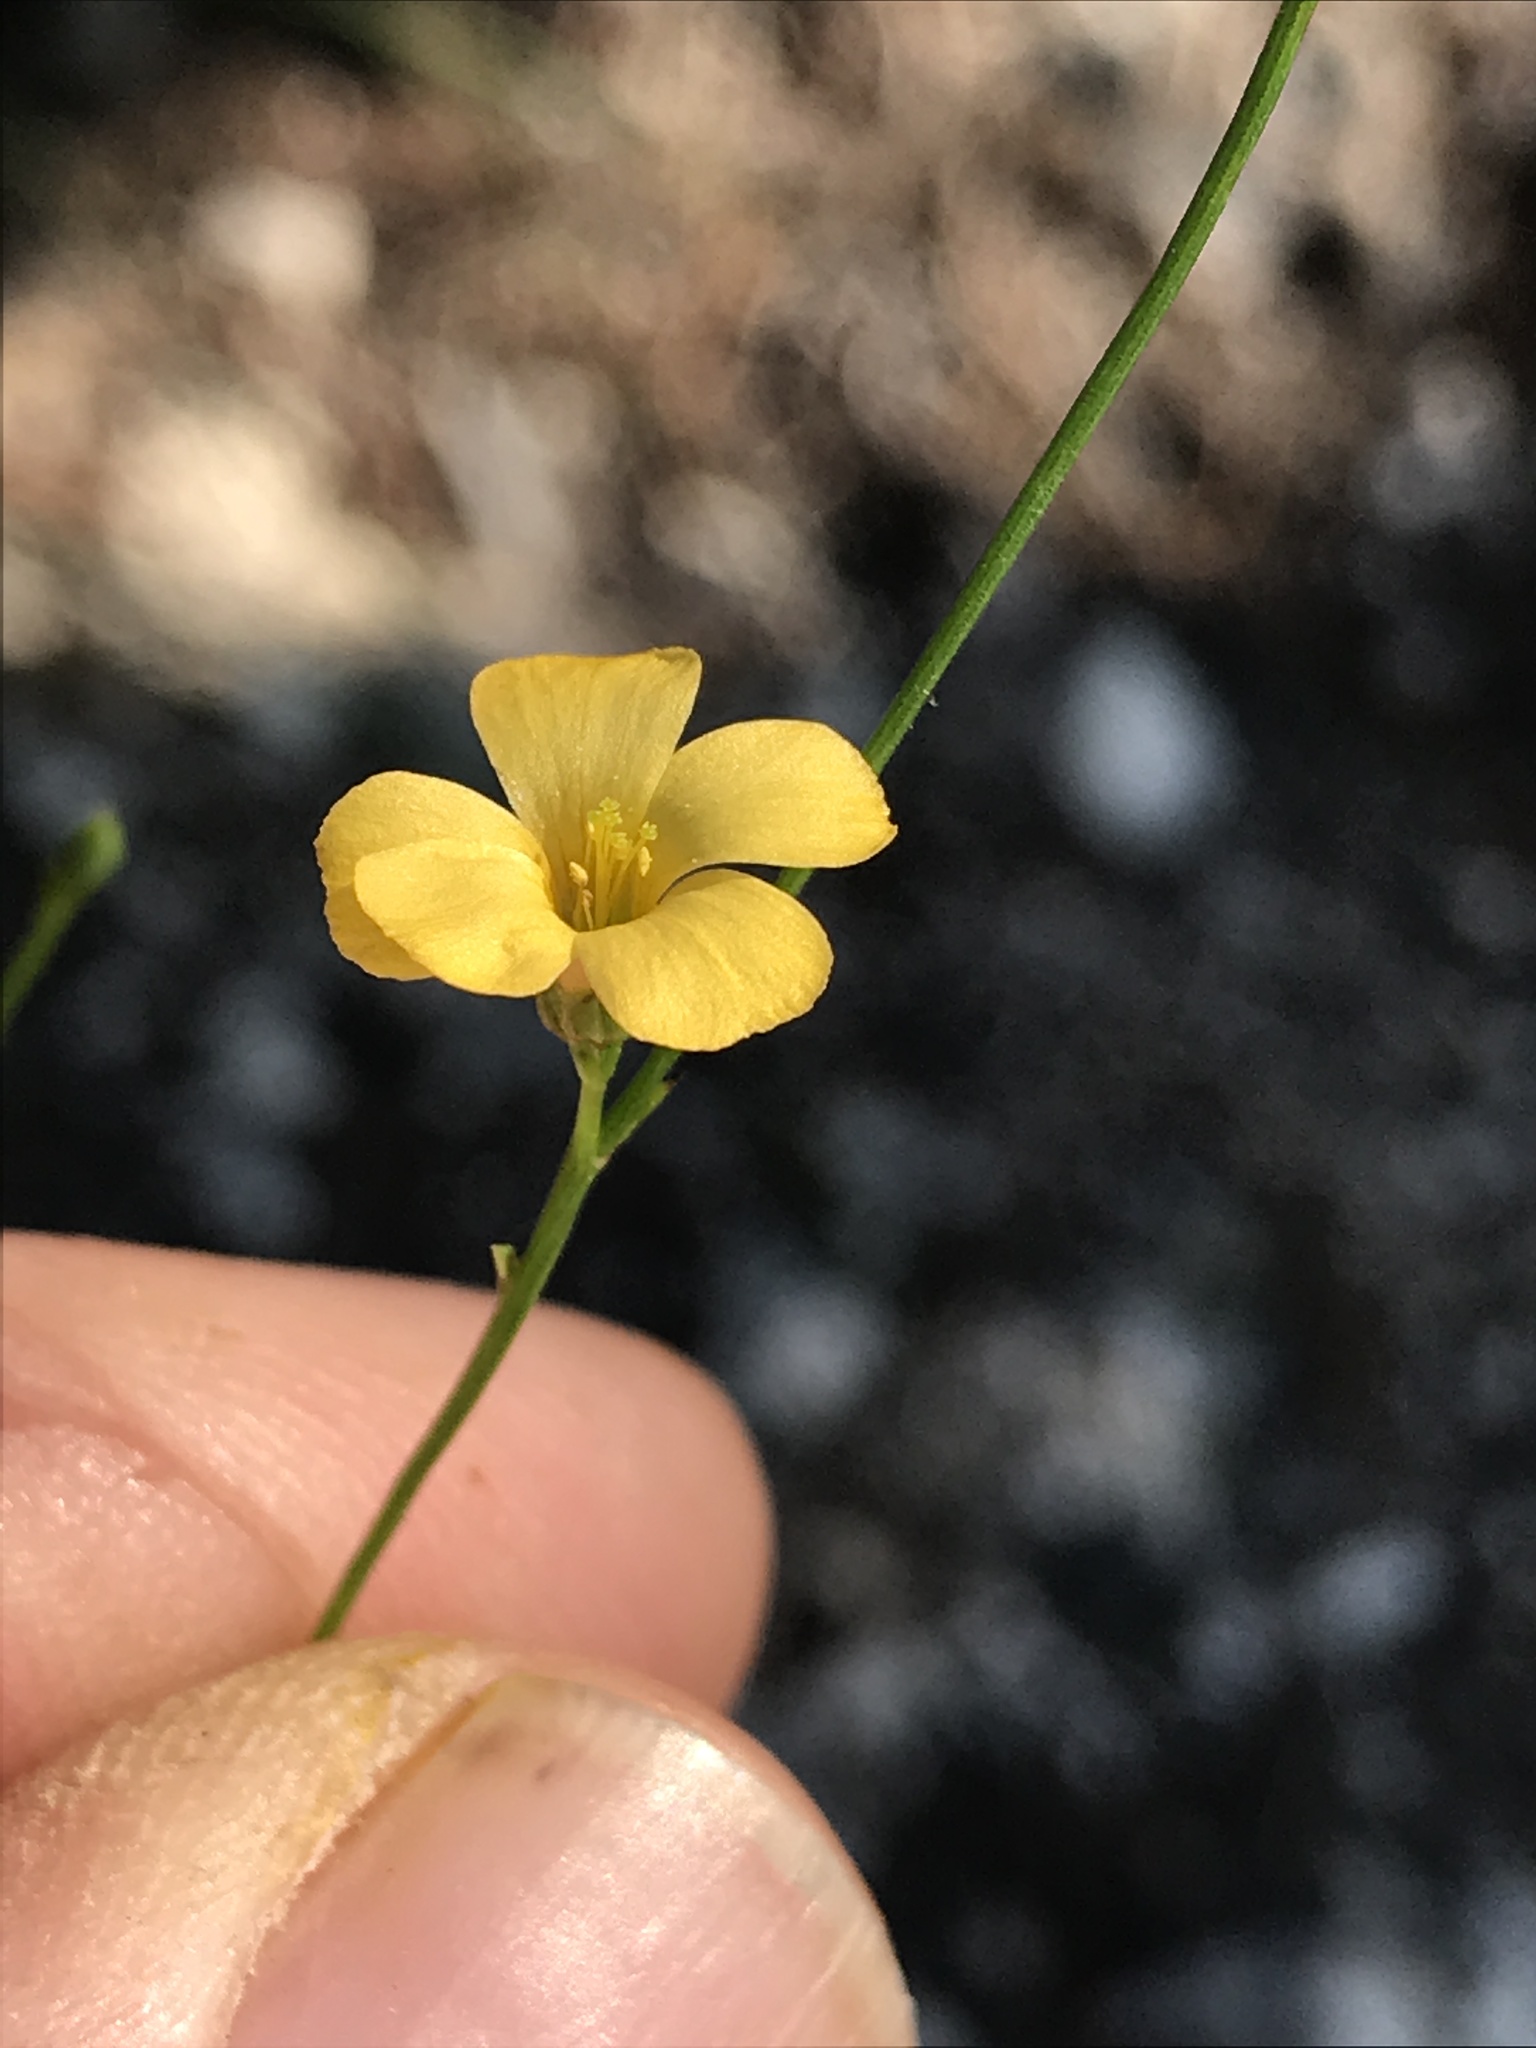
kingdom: Plantae
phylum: Tracheophyta
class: Magnoliopsida
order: Malpighiales
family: Linaceae
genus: Linum
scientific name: Linum rupestre
